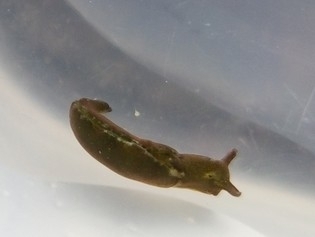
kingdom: Animalia
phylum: Mollusca
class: Gastropoda
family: Plakobranchidae
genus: Elysia
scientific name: Elysia viridis
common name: Green elysia
